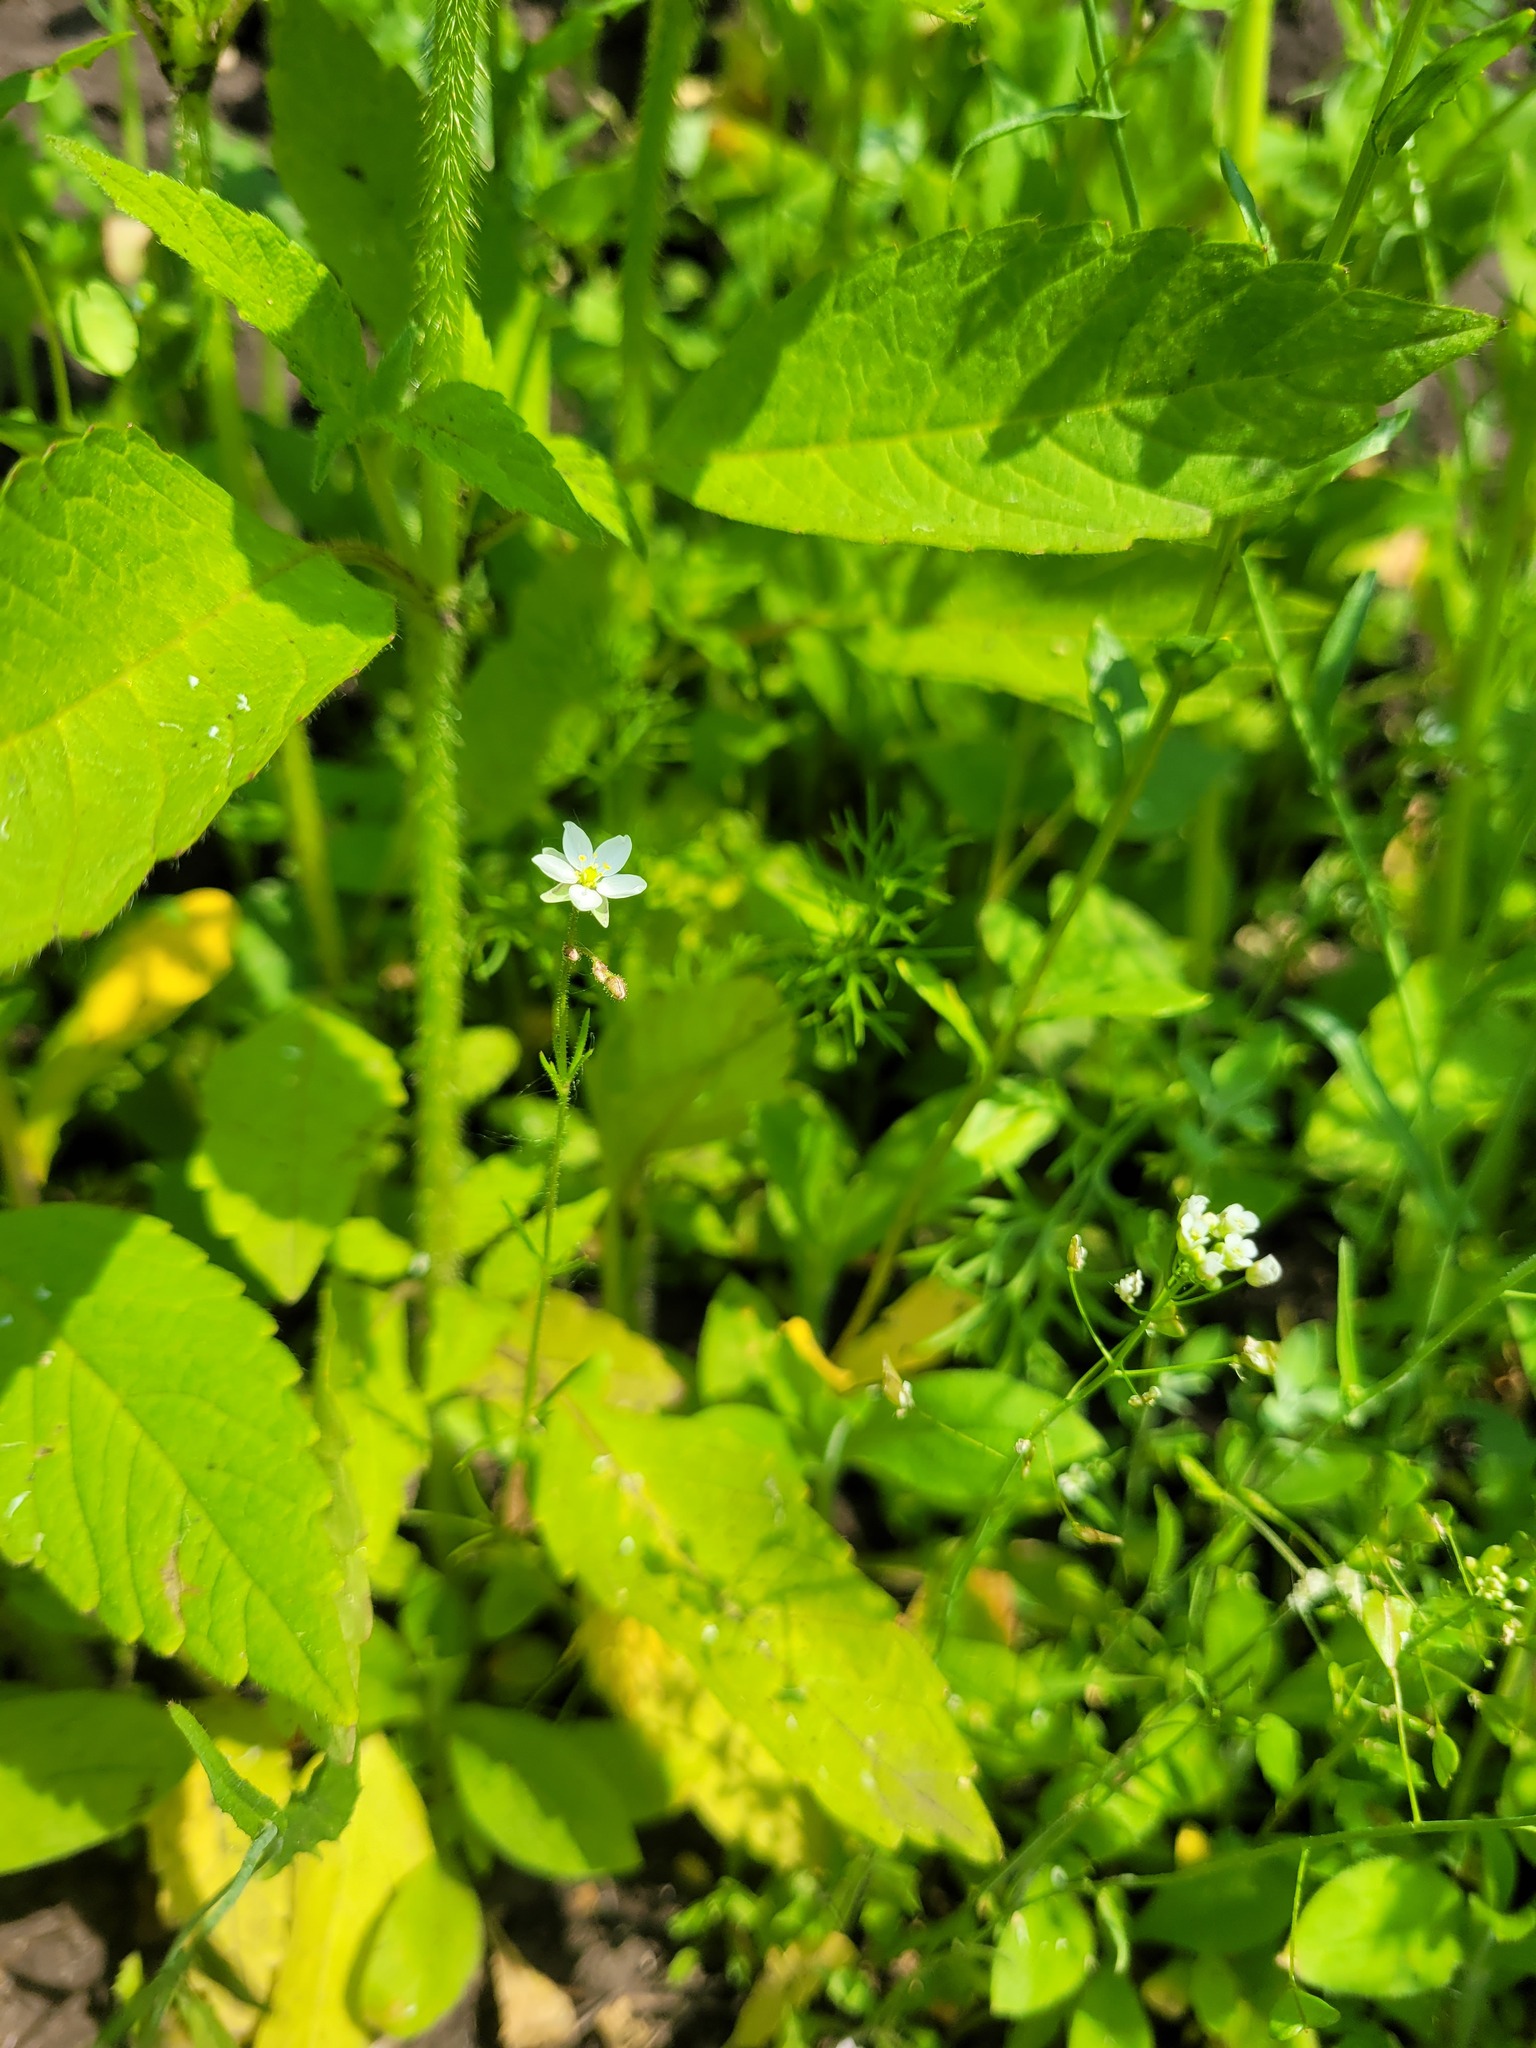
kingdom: Plantae
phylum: Tracheophyta
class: Magnoliopsida
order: Caryophyllales
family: Caryophyllaceae
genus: Spergula
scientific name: Spergula arvensis
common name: Corn spurrey
